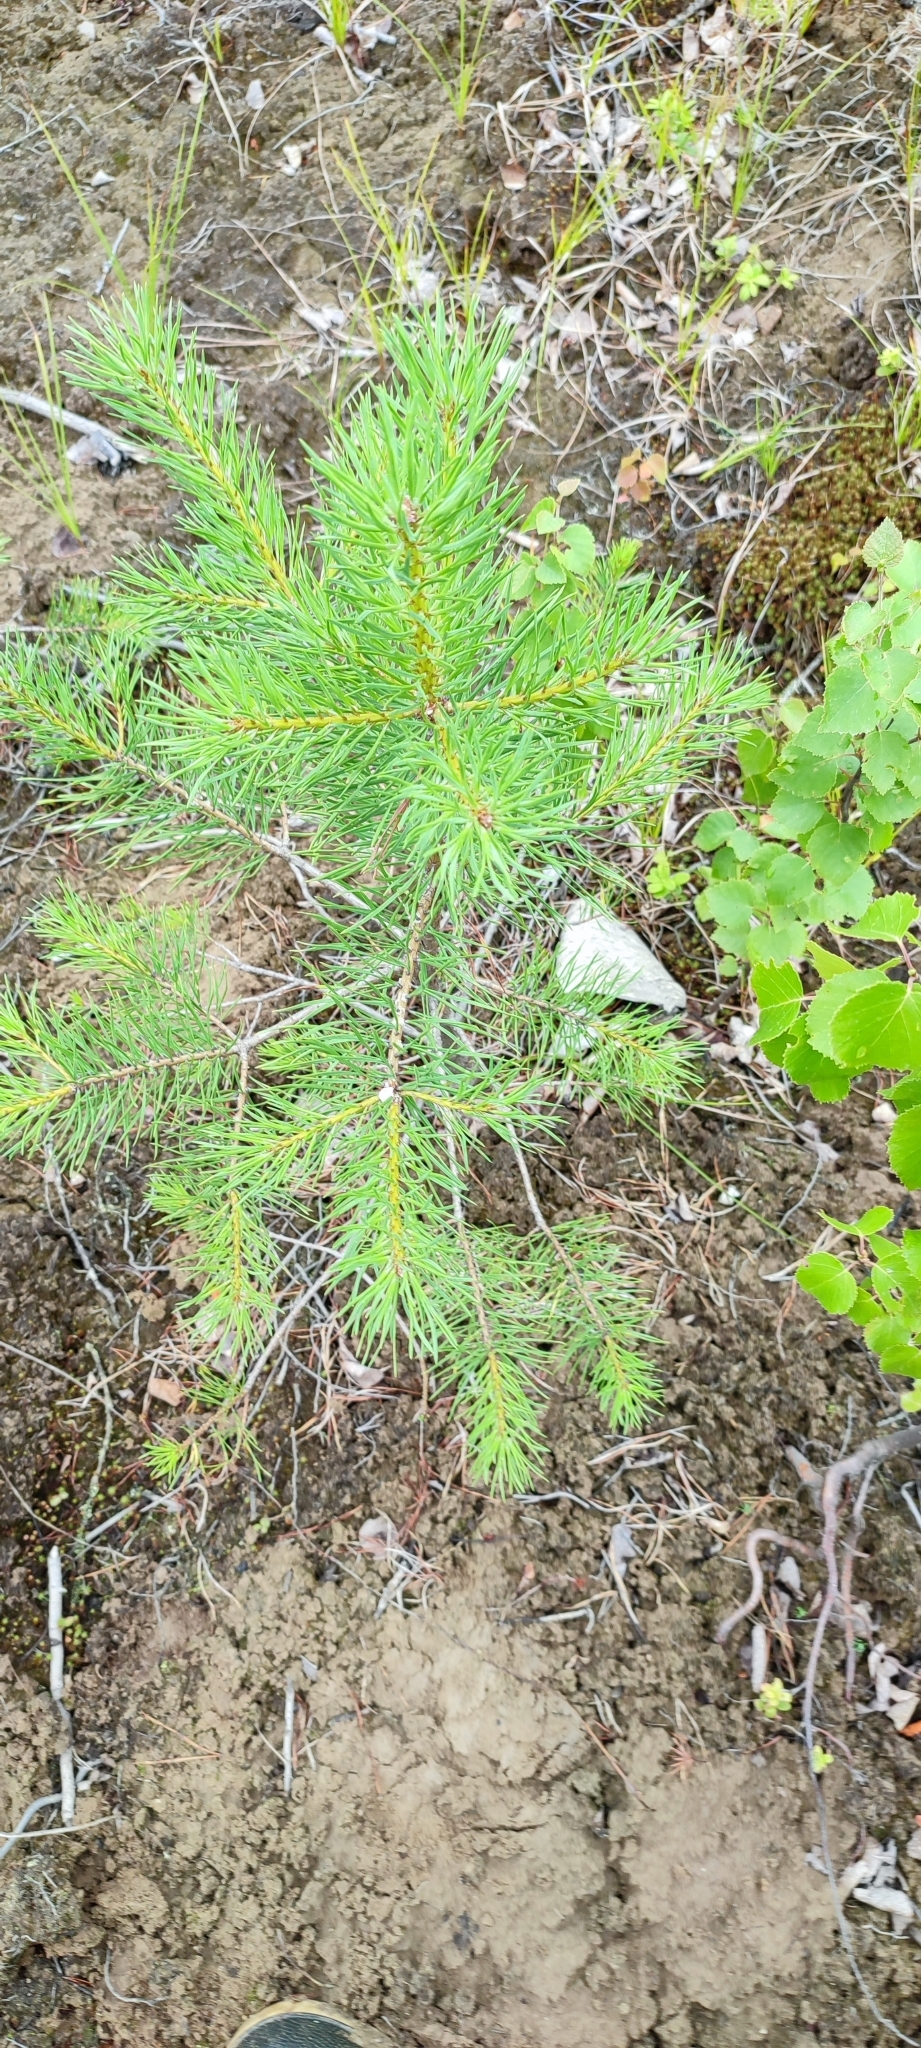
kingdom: Plantae
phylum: Tracheophyta
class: Pinopsida
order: Pinales
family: Pinaceae
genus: Pinus
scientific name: Pinus sylvestris
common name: Scots pine
